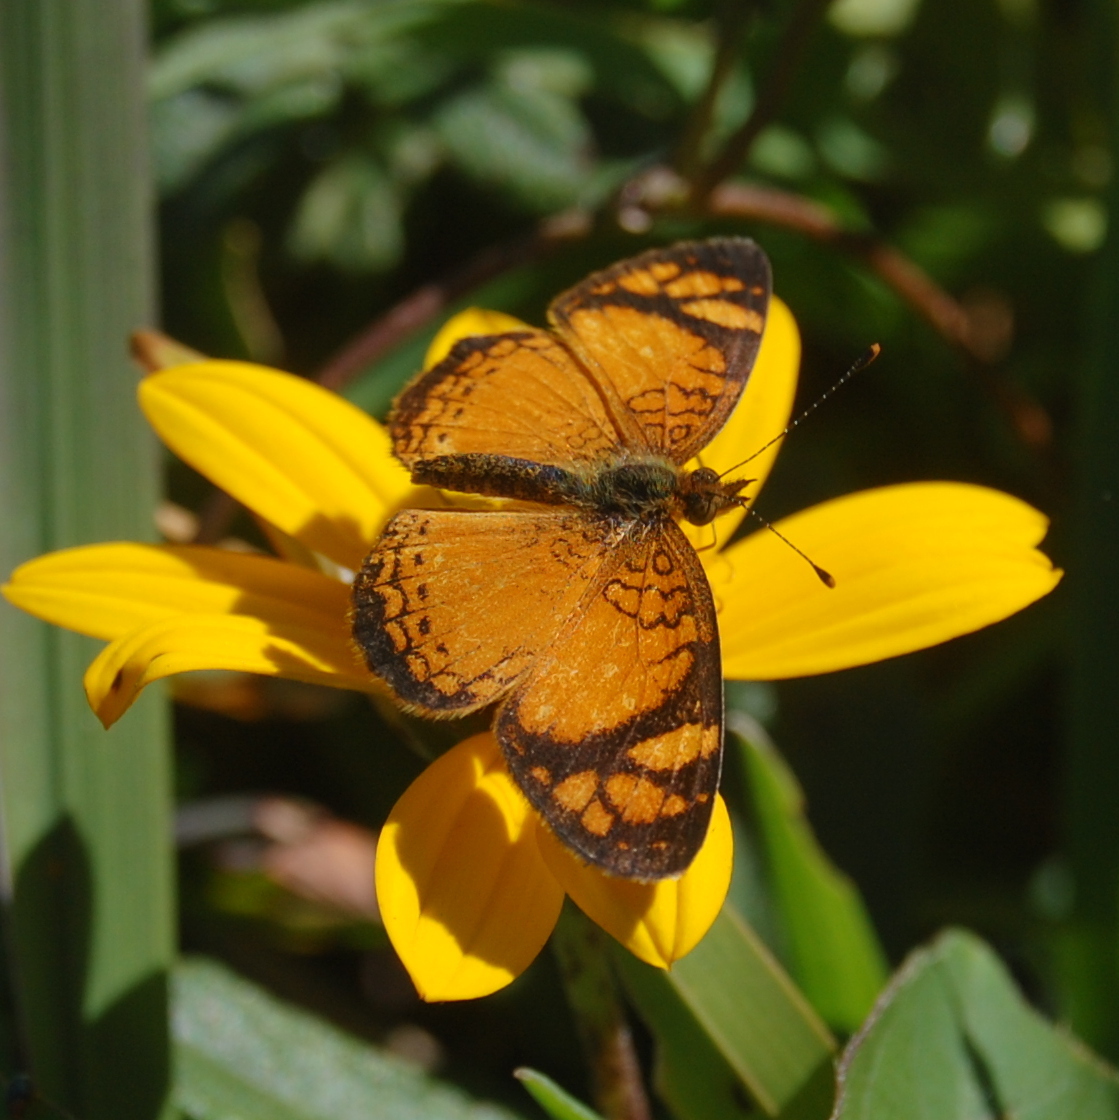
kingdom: Animalia
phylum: Arthropoda
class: Insecta
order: Lepidoptera
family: Nymphalidae
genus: Tegosa
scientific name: Tegosa orobia
